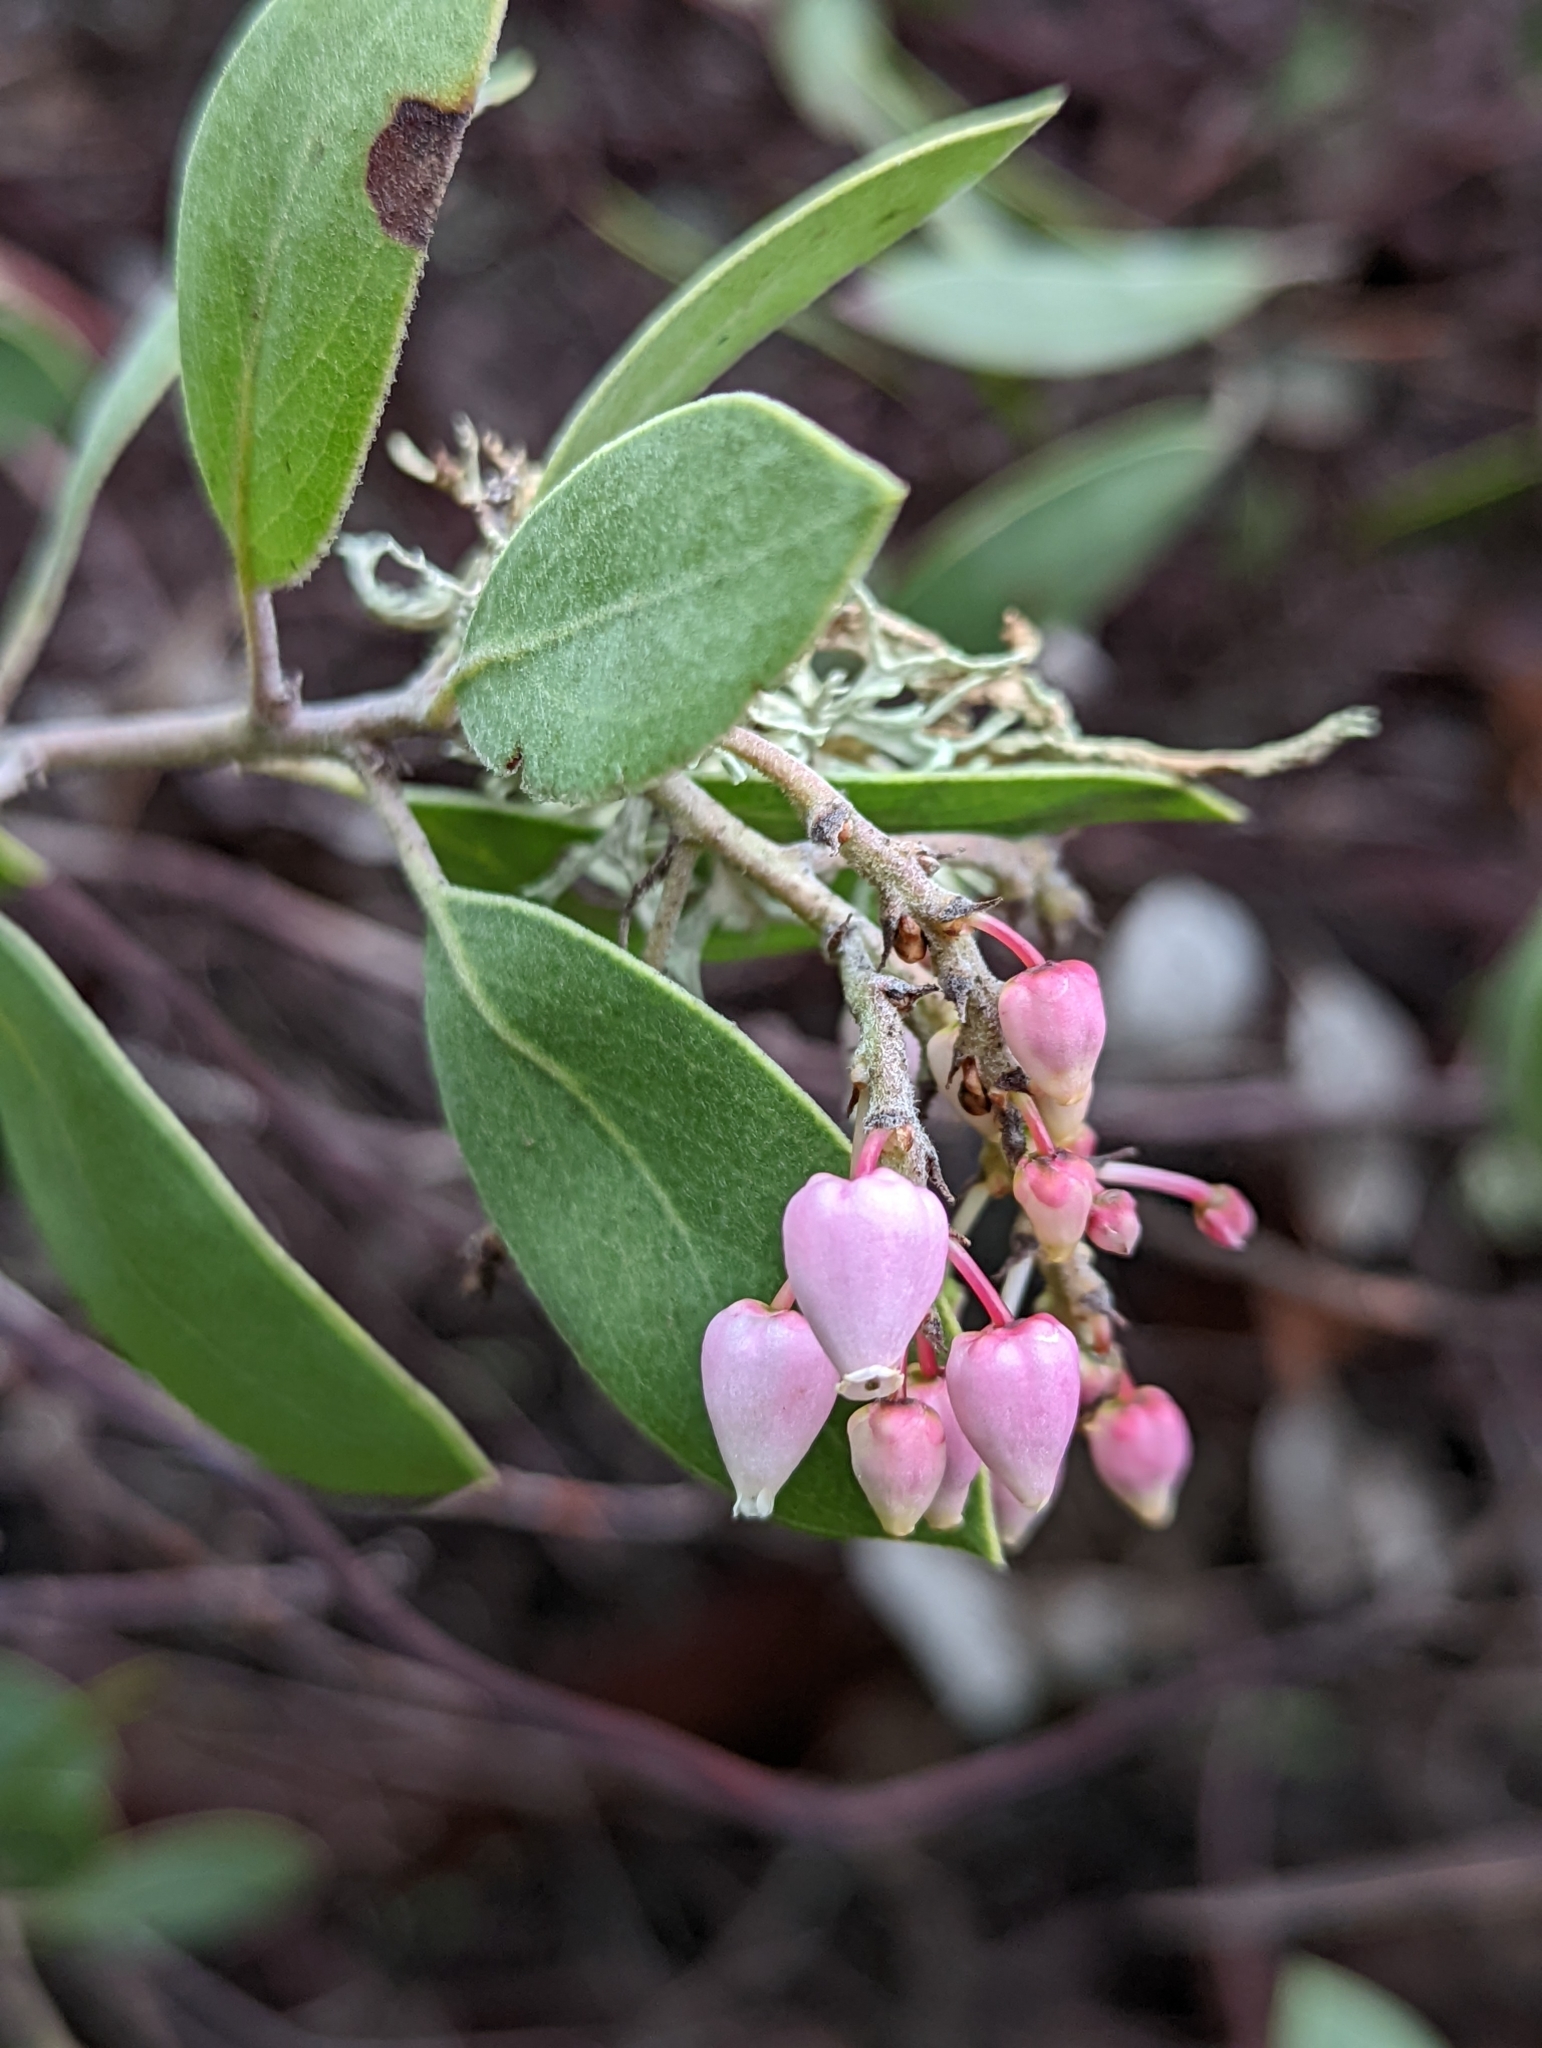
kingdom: Plantae
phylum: Tracheophyta
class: Magnoliopsida
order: Ericales
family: Ericaceae
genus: Arctostaphylos
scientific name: Arctostaphylos manzanita
